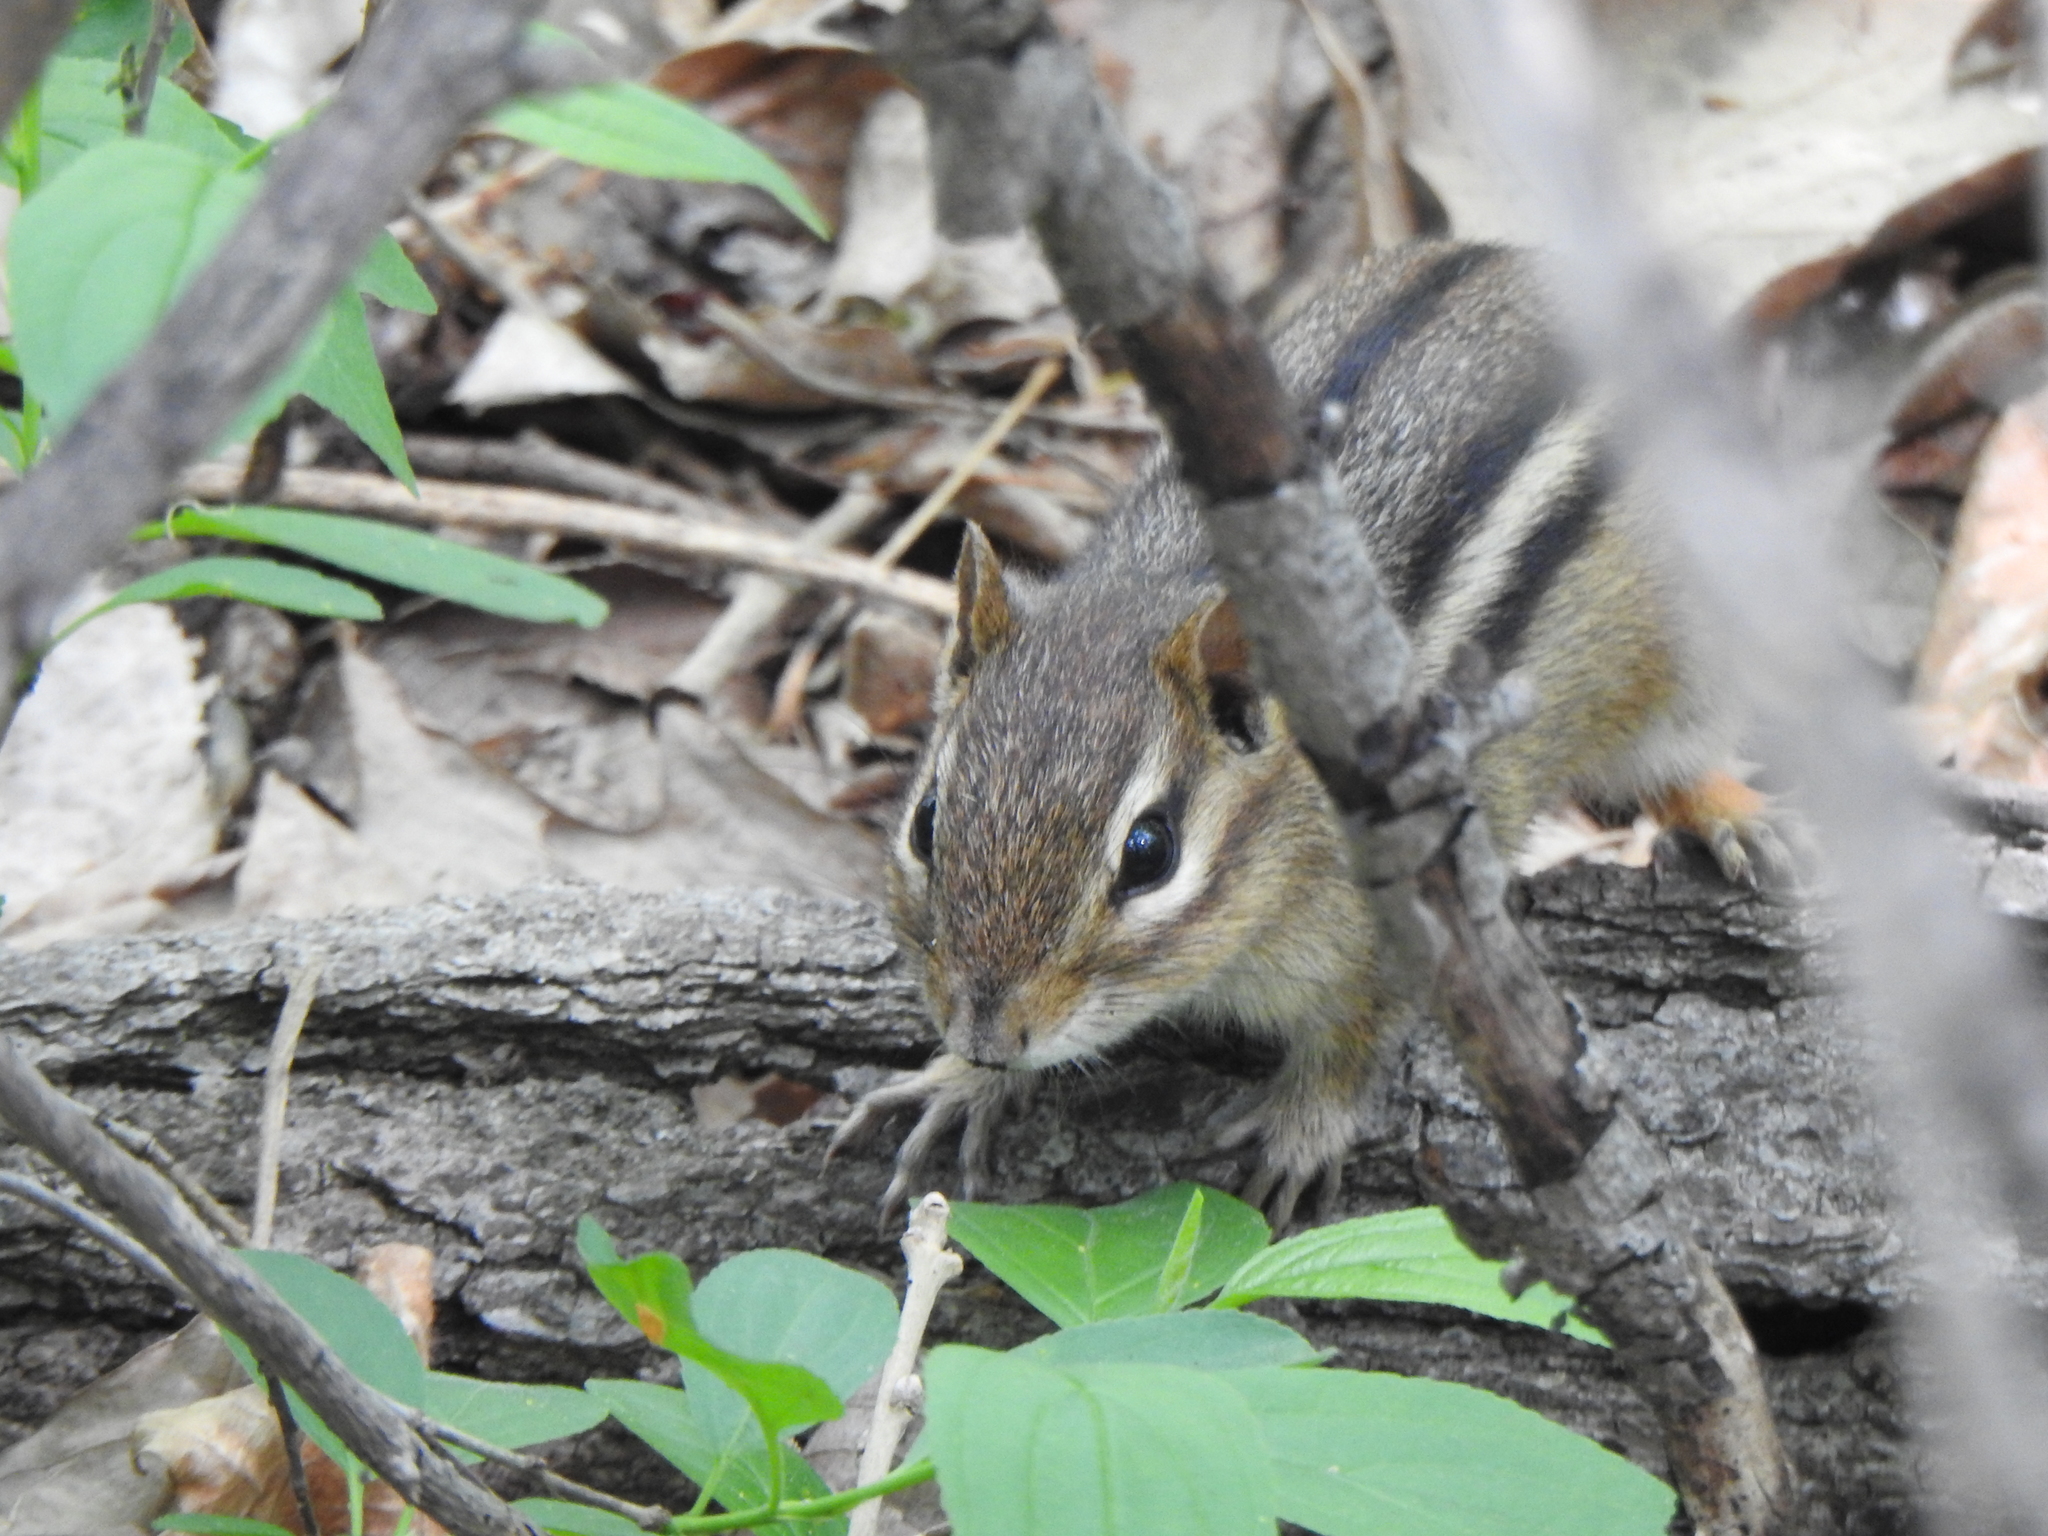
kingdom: Animalia
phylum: Chordata
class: Mammalia
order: Rodentia
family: Sciuridae
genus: Tamias
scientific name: Tamias striatus
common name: Eastern chipmunk
